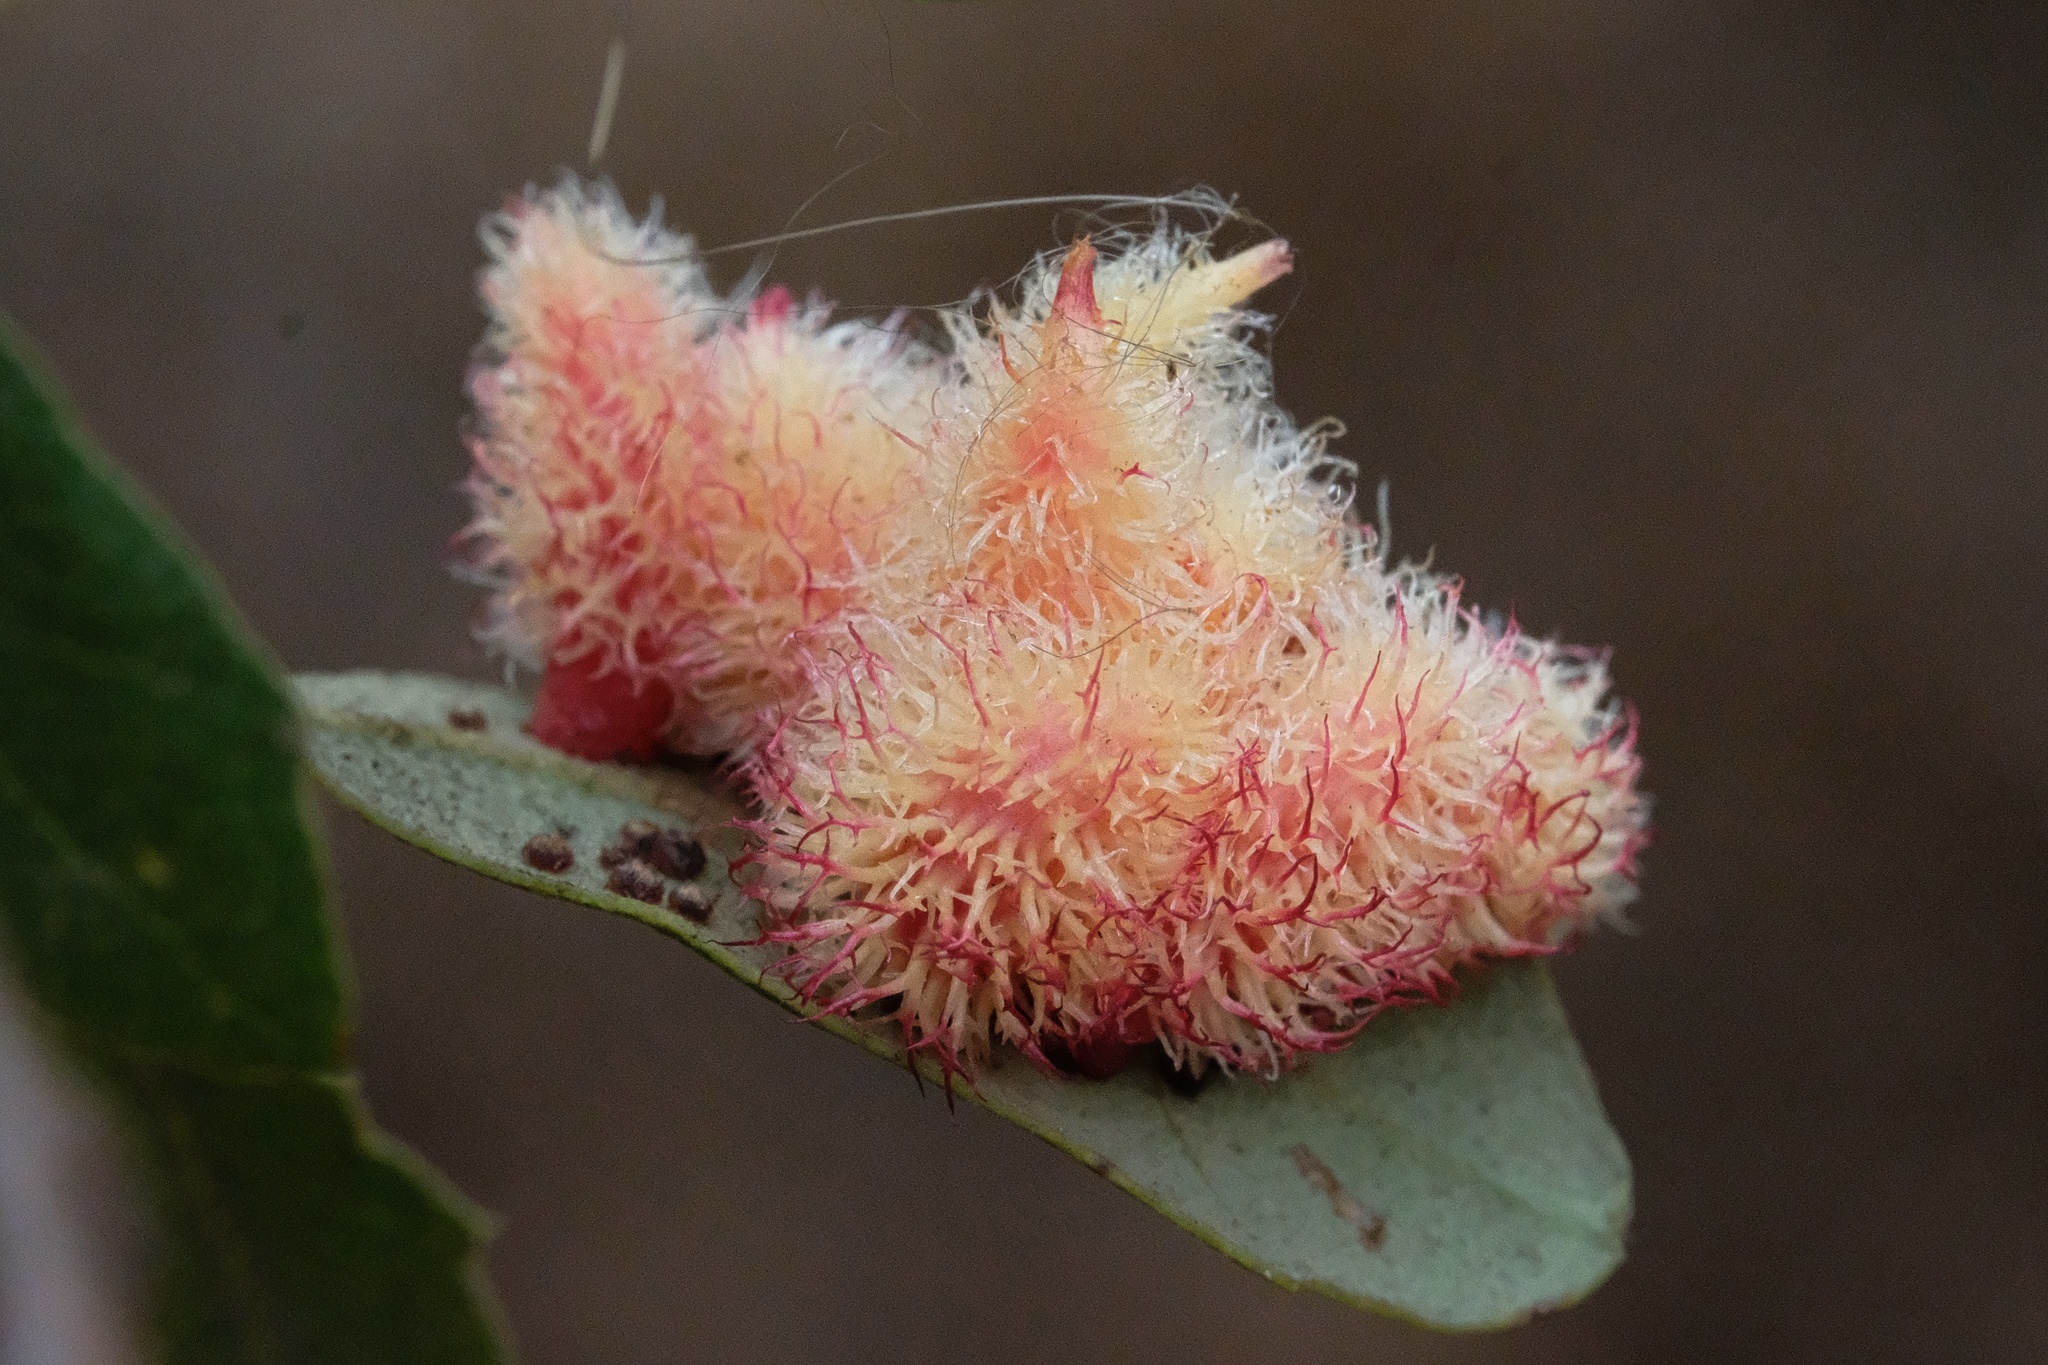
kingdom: Animalia
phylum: Arthropoda
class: Insecta
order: Hymenoptera
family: Cynipidae
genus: Andricus
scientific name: Andricus
